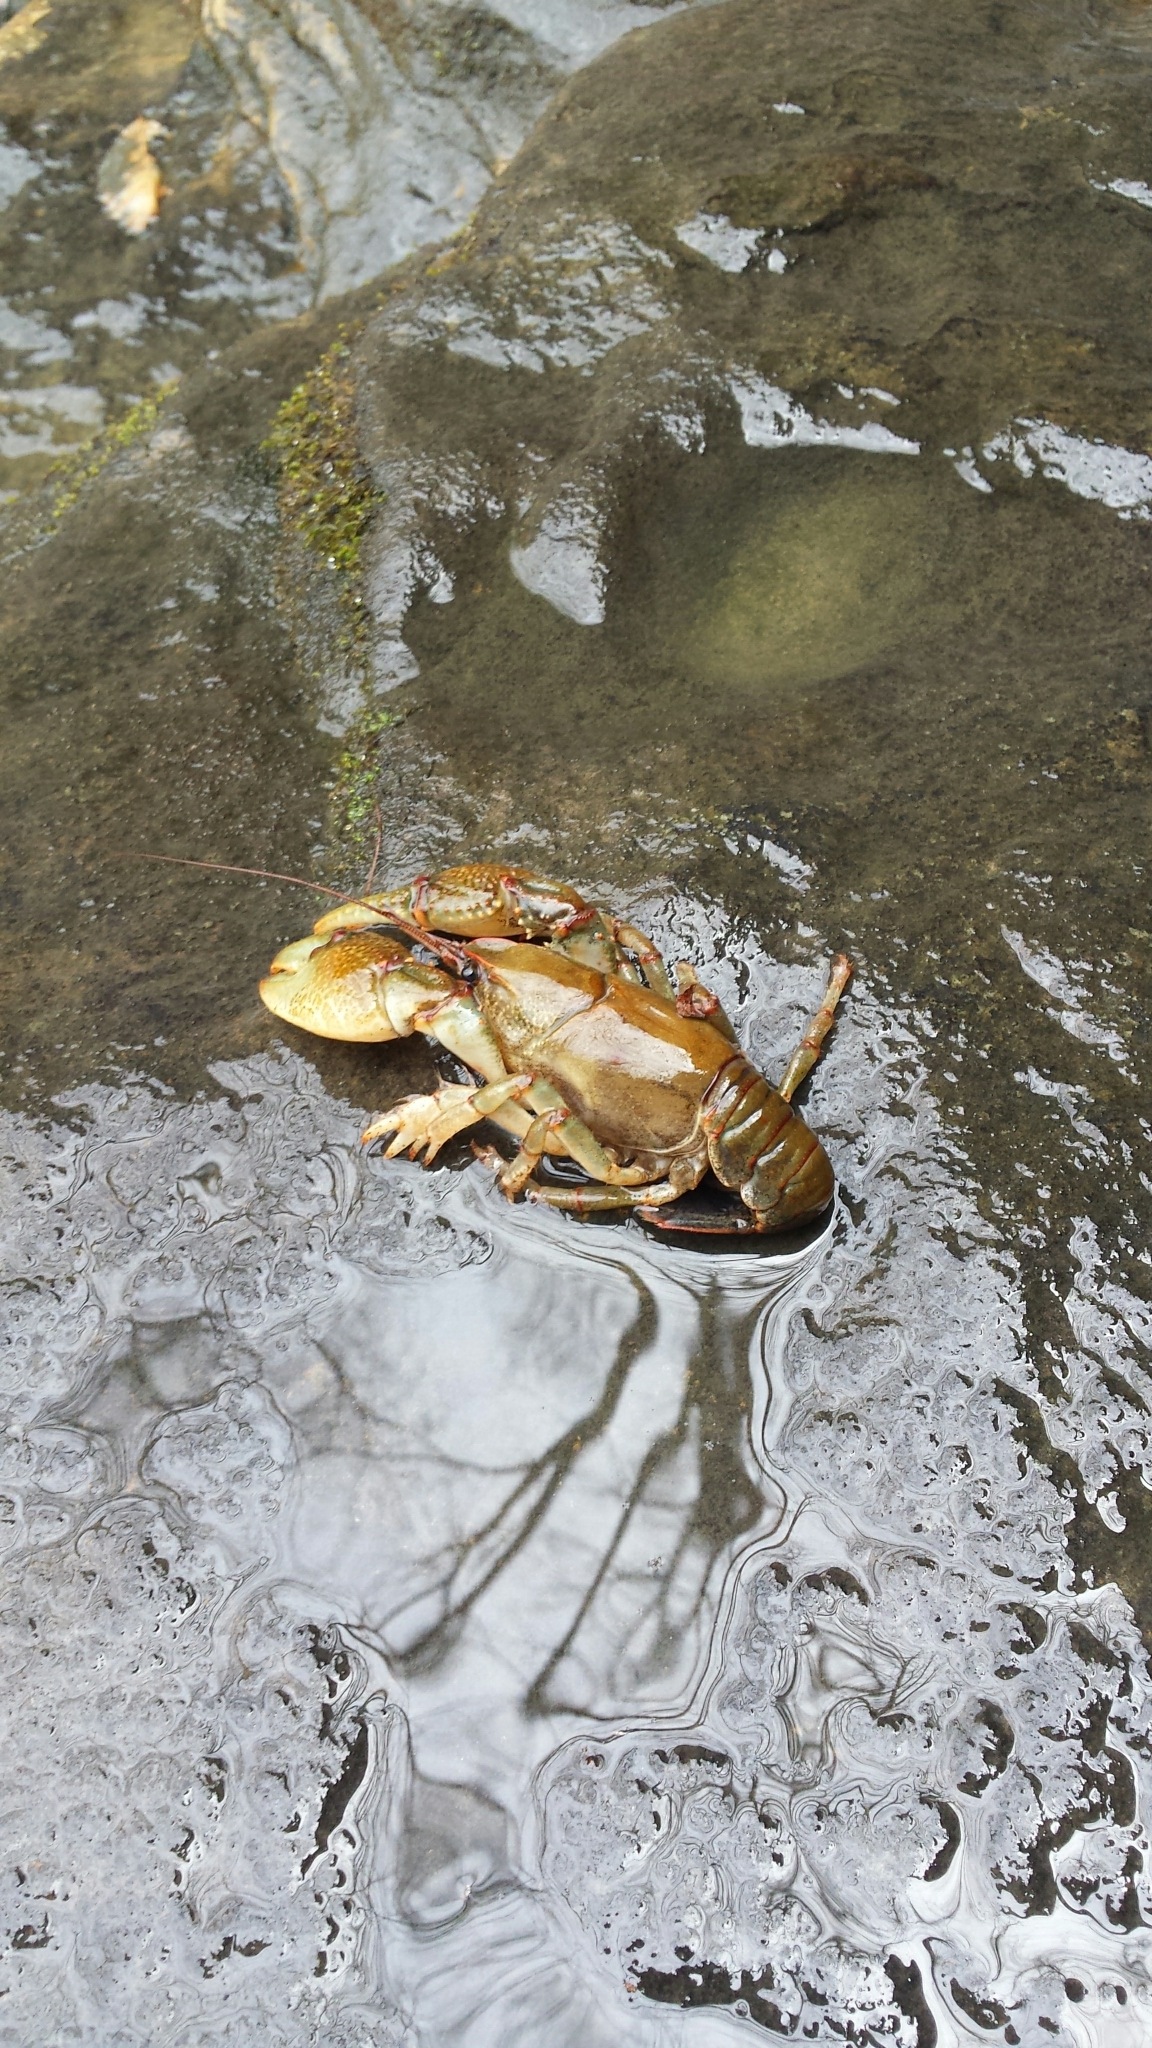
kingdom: Animalia
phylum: Arthropoda
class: Malacostraca
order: Decapoda
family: Cambaridae
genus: Lacunicambarus
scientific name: Lacunicambarus polychromatus
